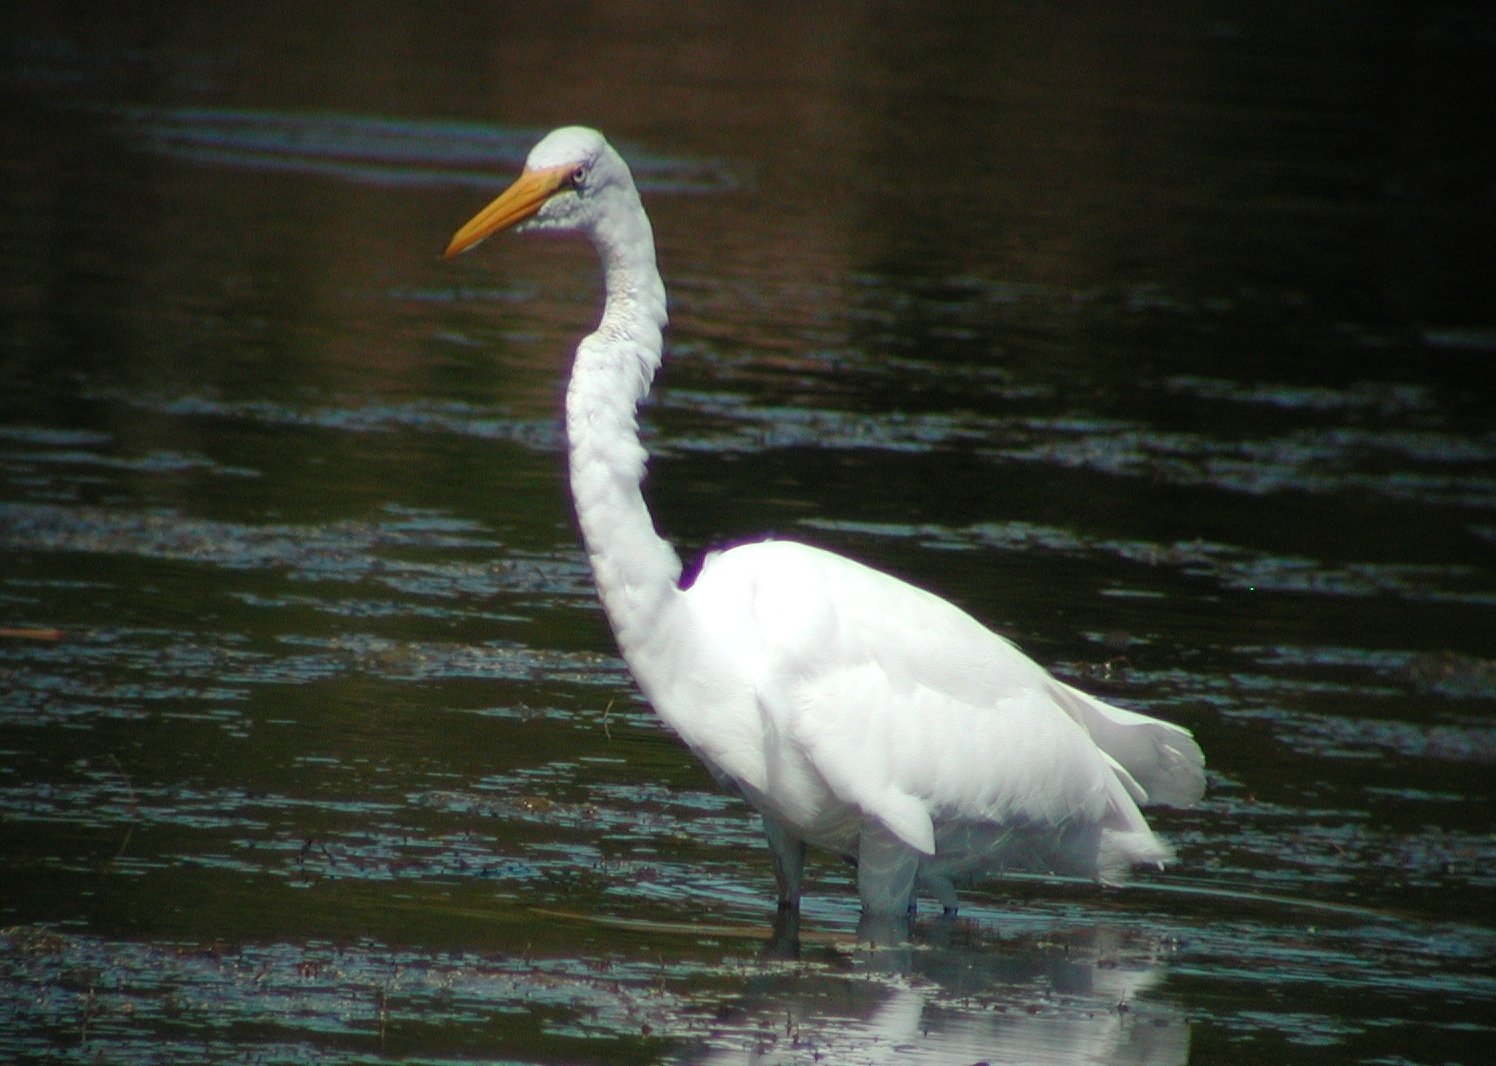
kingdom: Animalia
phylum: Chordata
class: Aves
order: Pelecaniformes
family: Ardeidae
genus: Ardea
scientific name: Ardea alba
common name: Great egret
